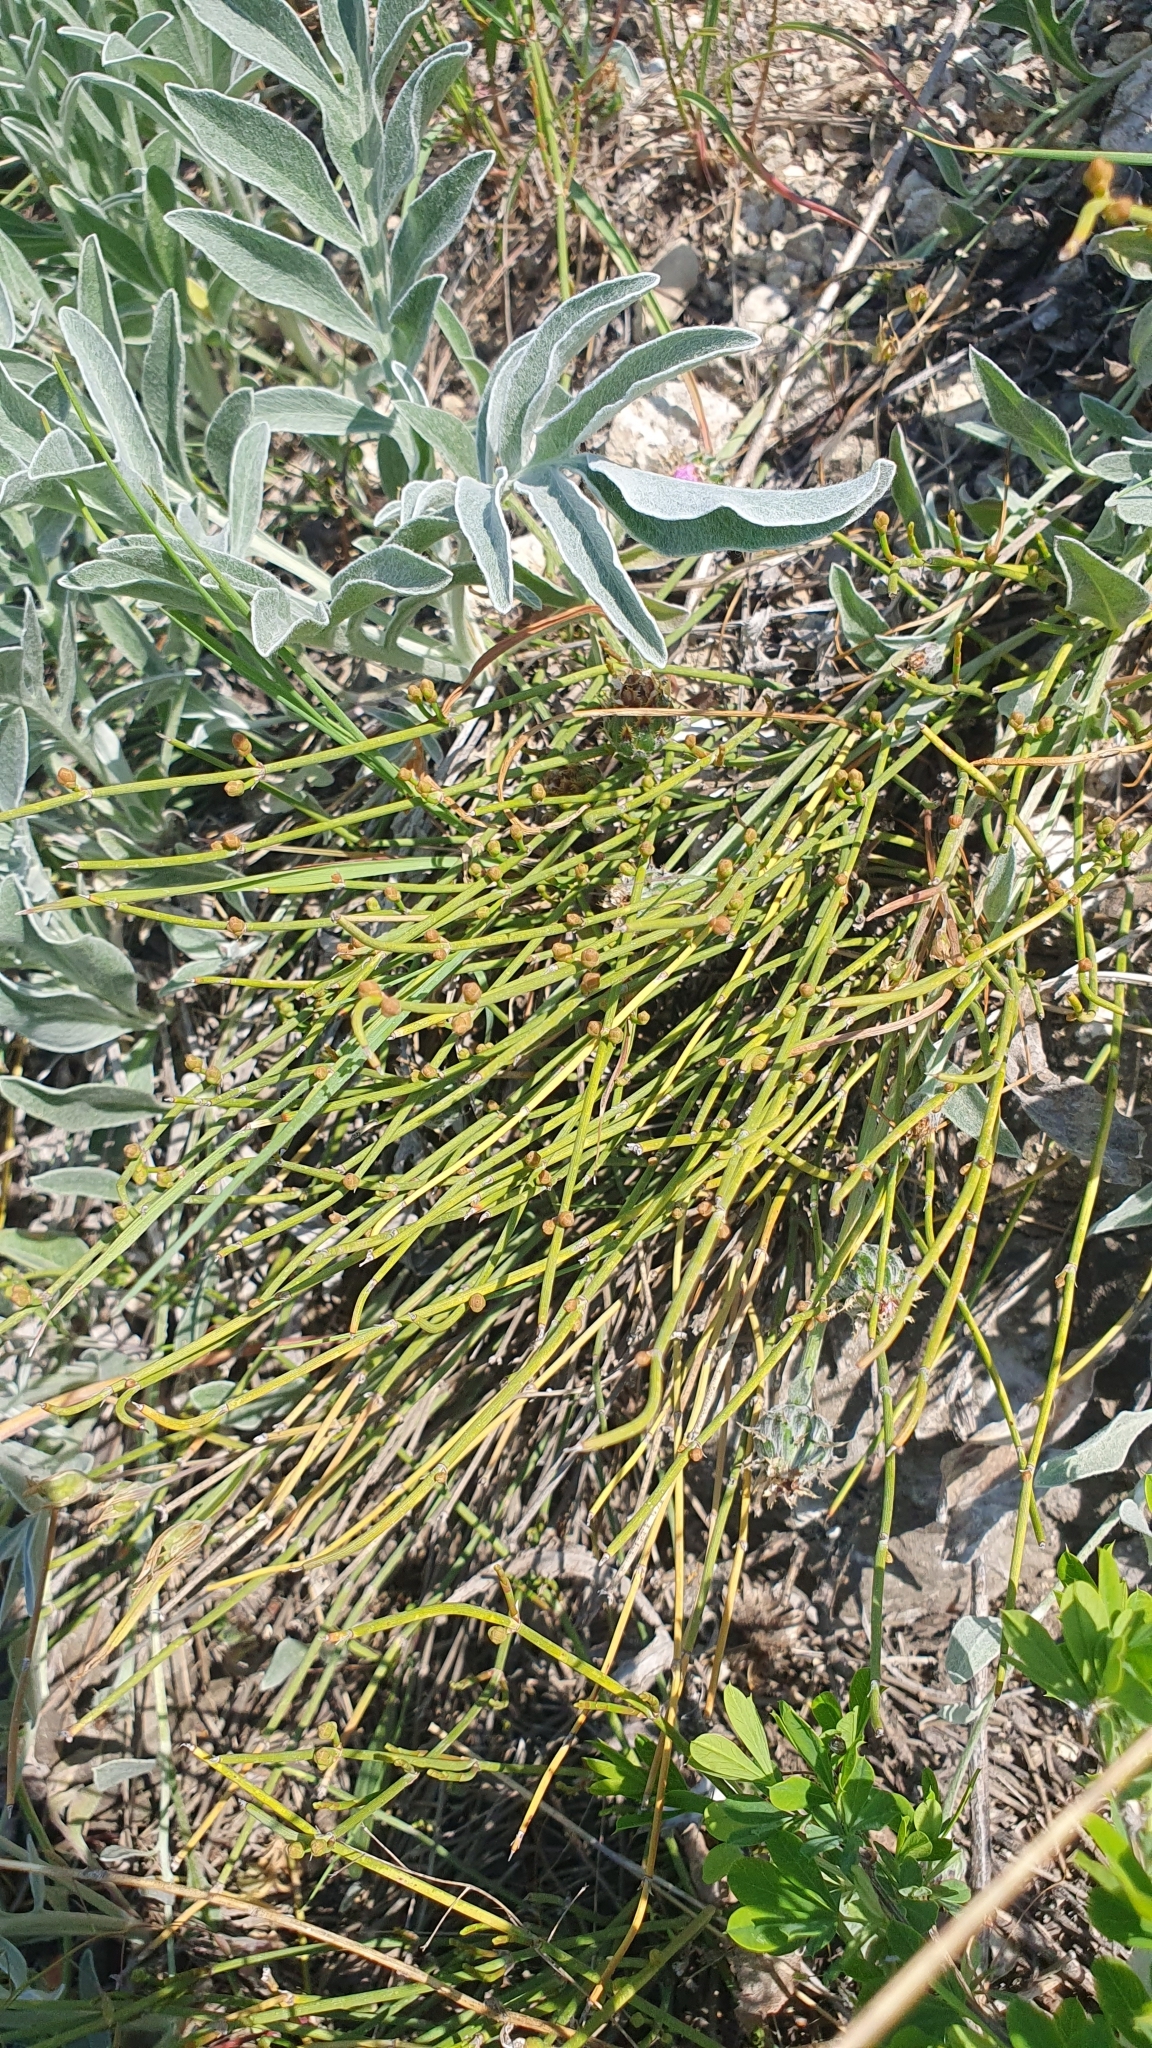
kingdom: Plantae
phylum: Tracheophyta
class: Gnetopsida
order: Ephedrales
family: Ephedraceae
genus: Ephedra
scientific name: Ephedra distachya
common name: Sea grape
